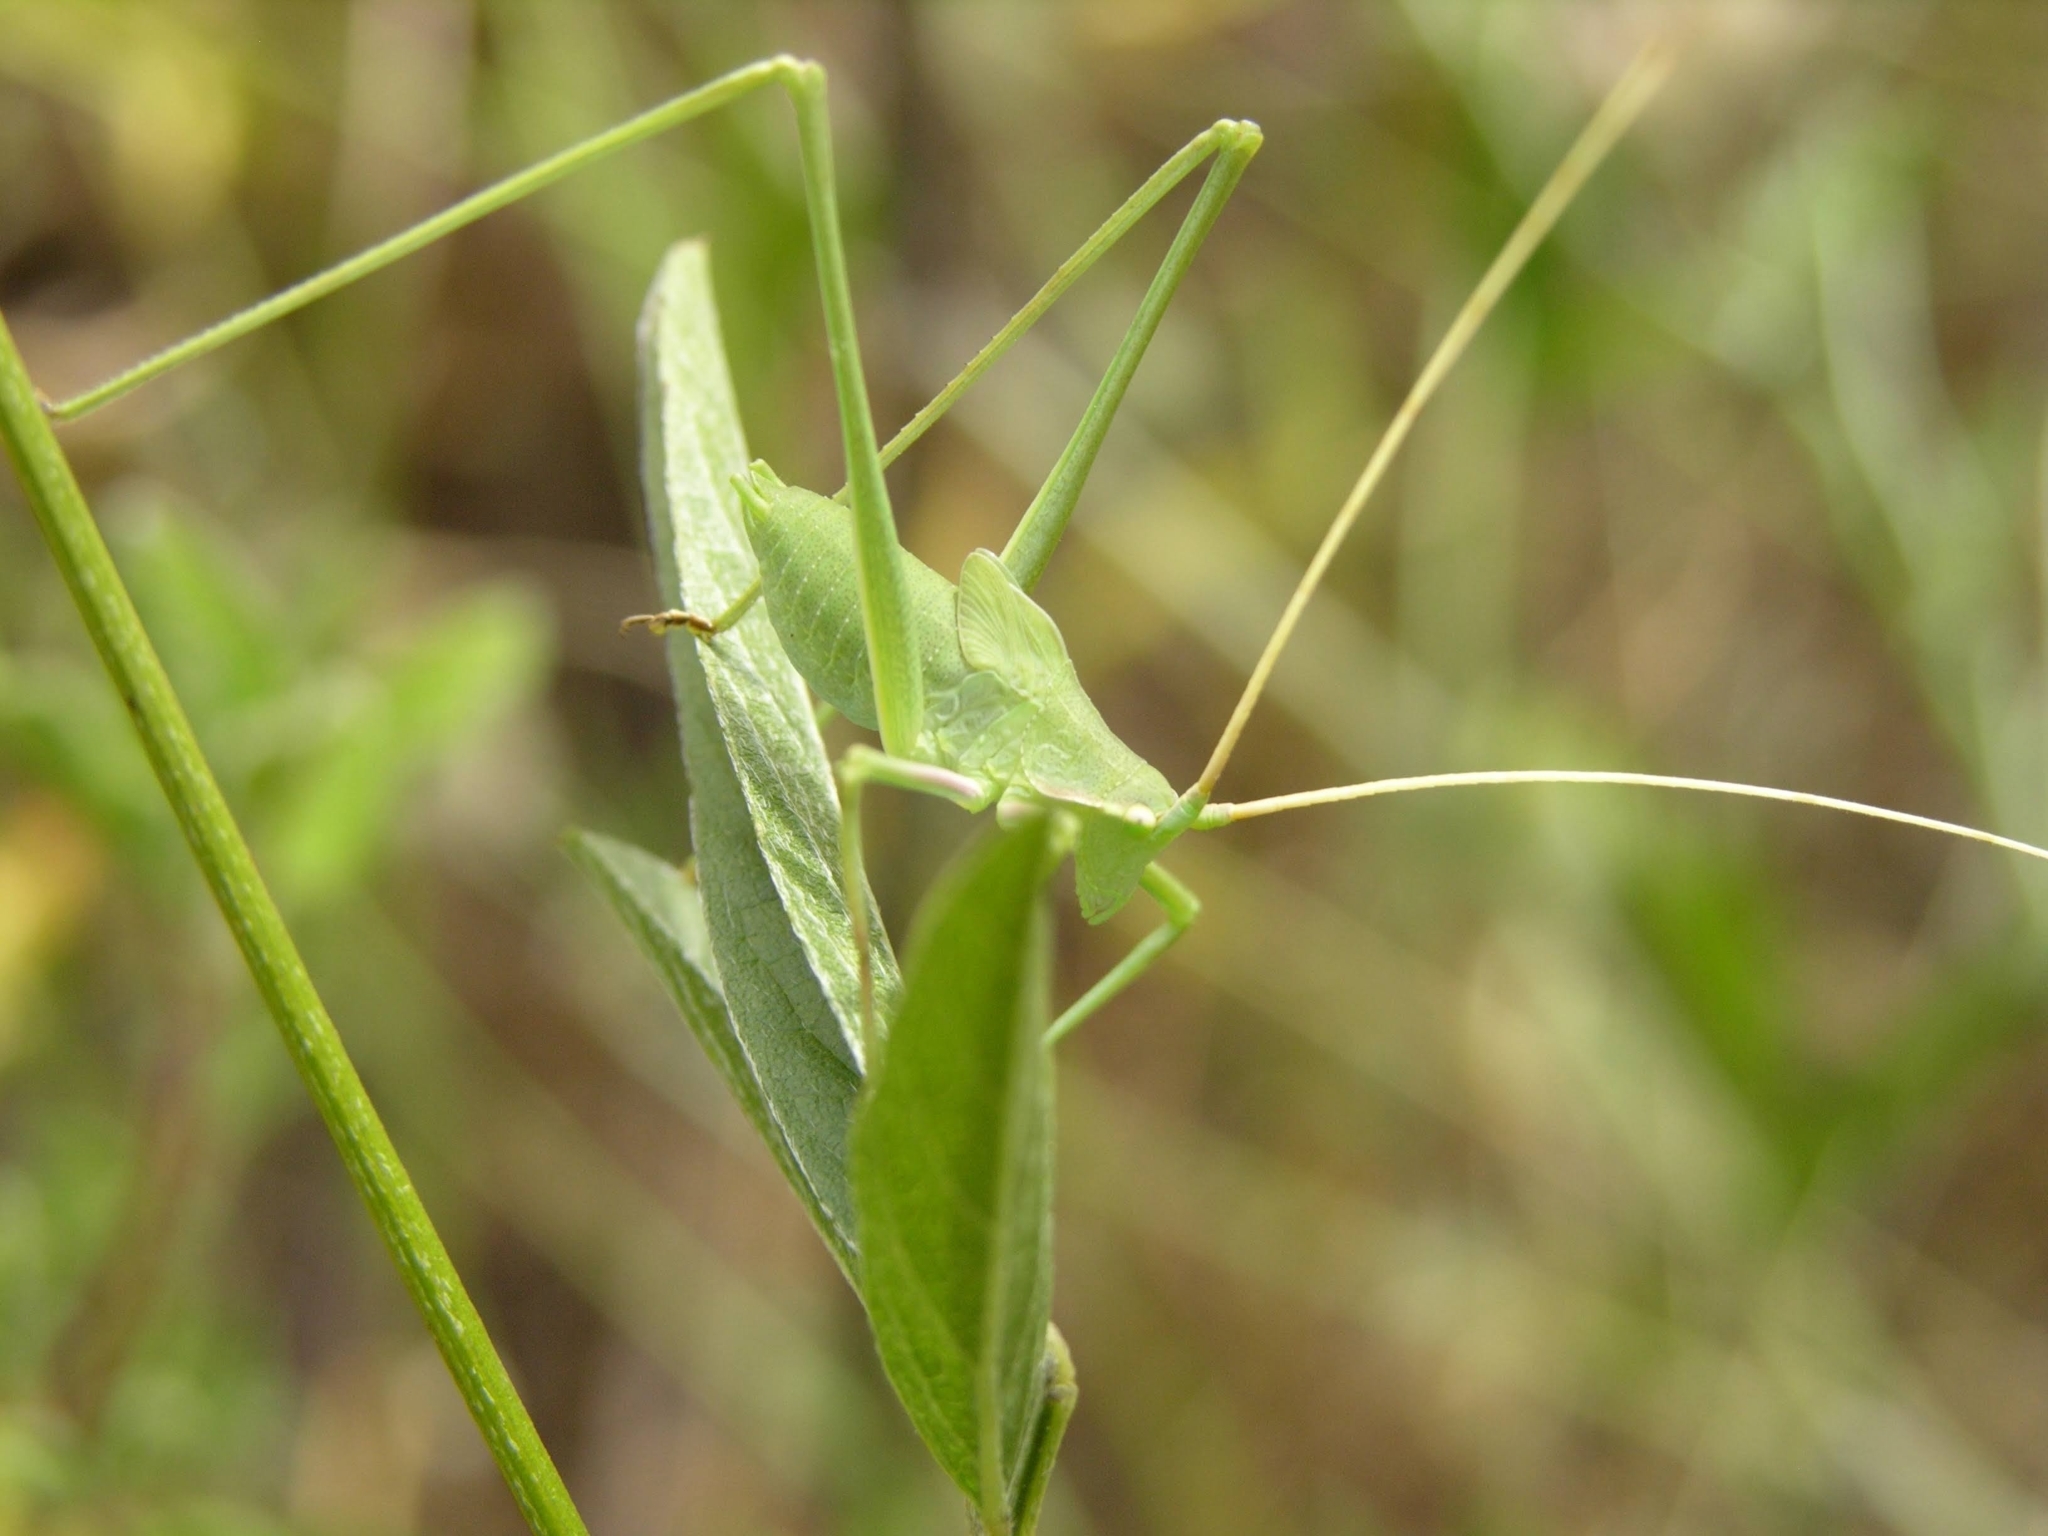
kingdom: Animalia
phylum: Arthropoda
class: Insecta
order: Orthoptera
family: Tettigoniidae
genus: Acrometopa
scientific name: Acrometopa macropoda
